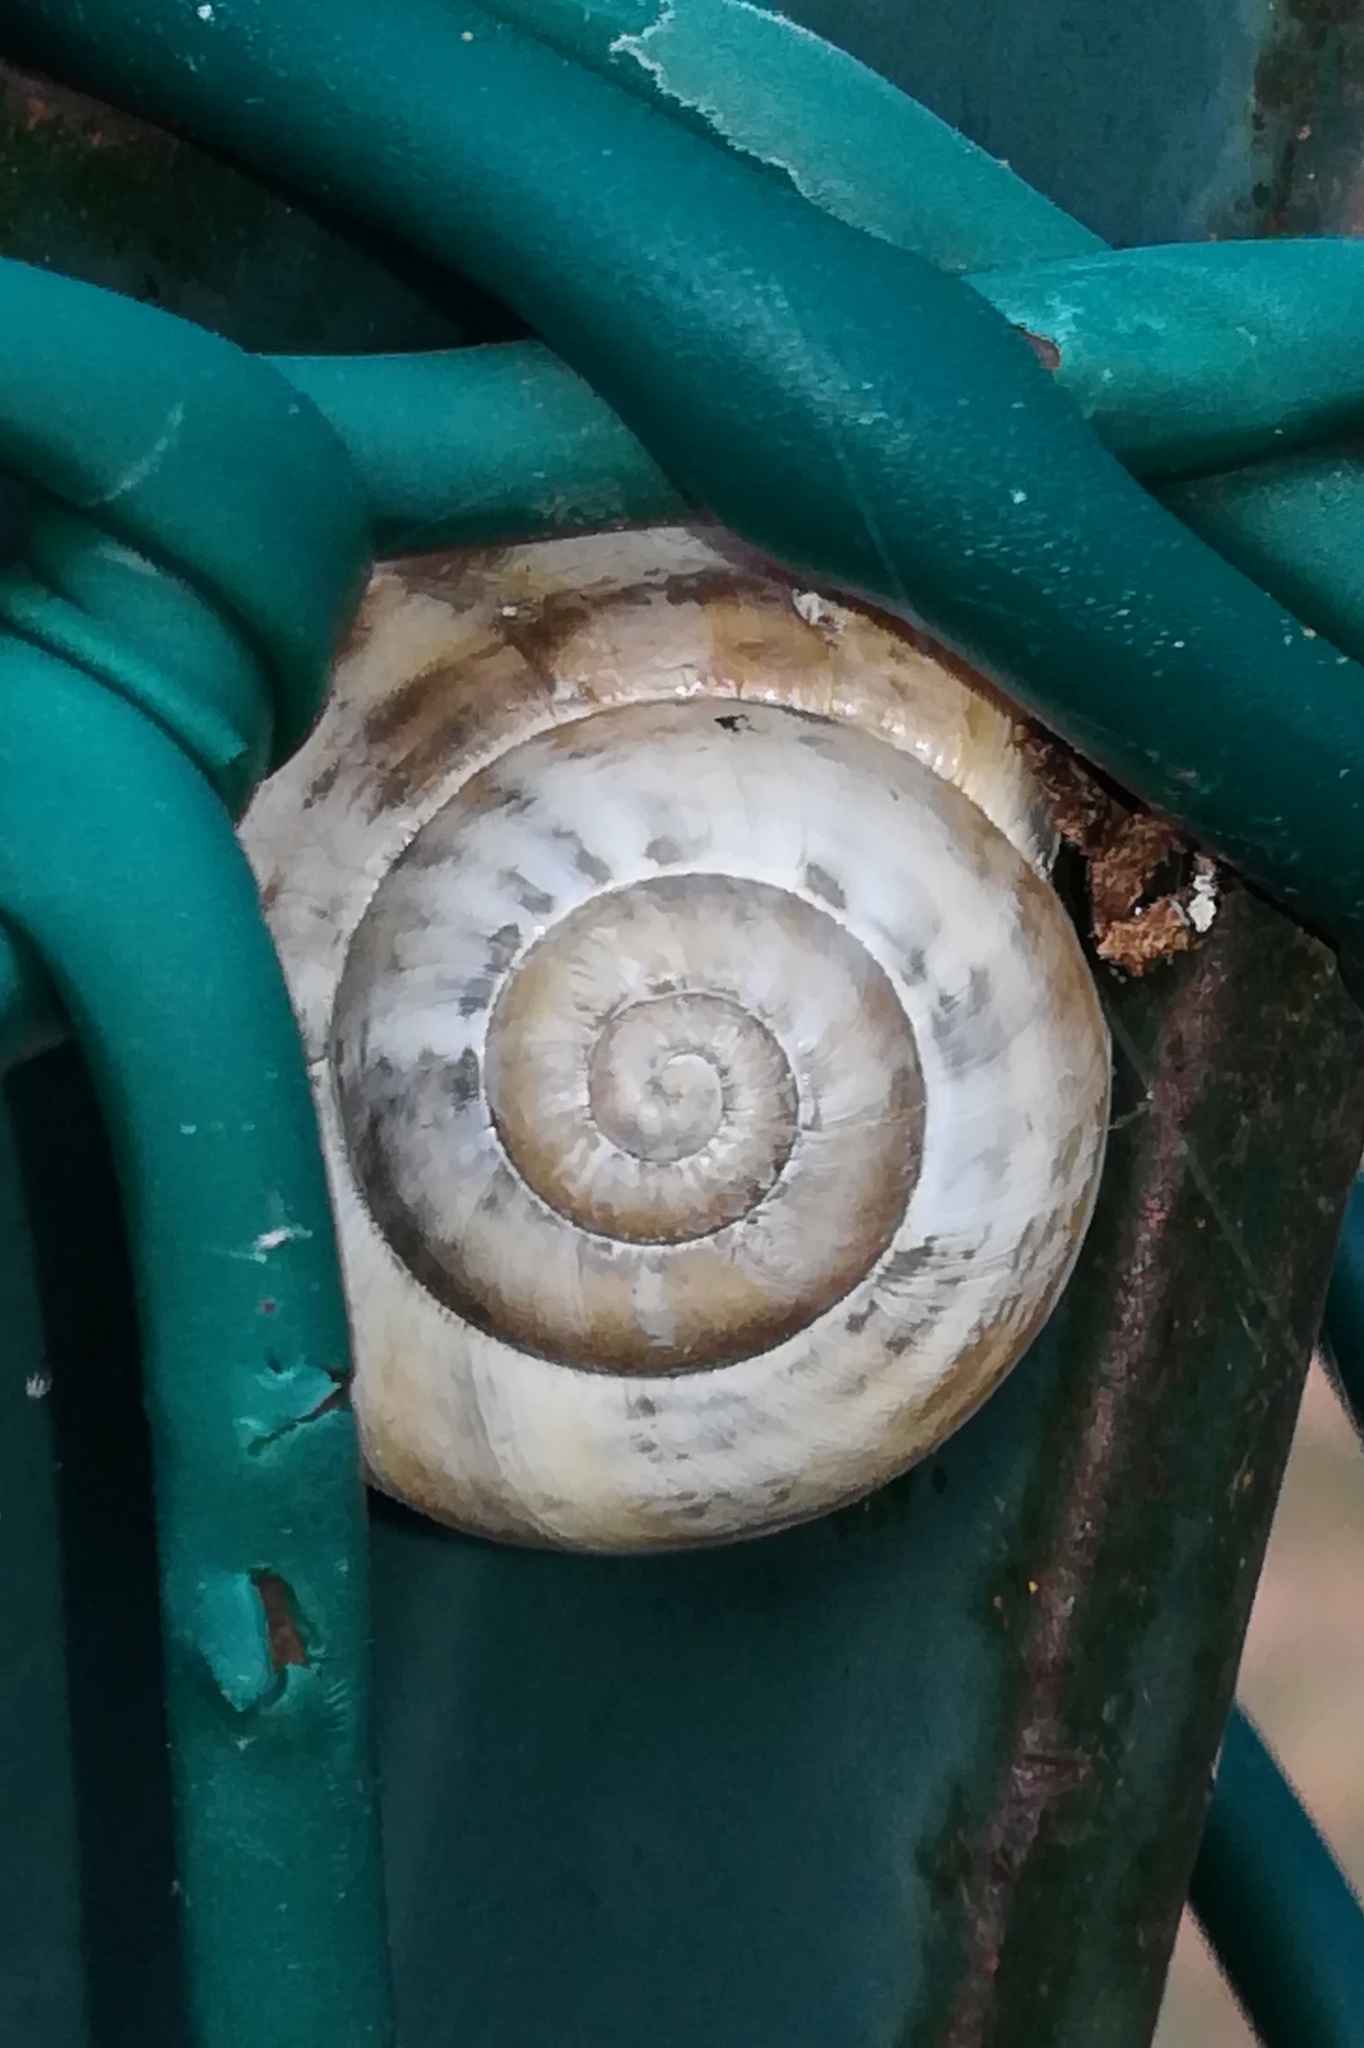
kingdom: Animalia
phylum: Mollusca
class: Gastropoda
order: Stylommatophora
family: Helicidae
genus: Eobania
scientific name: Eobania vermiculata
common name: Chocolateband snail
